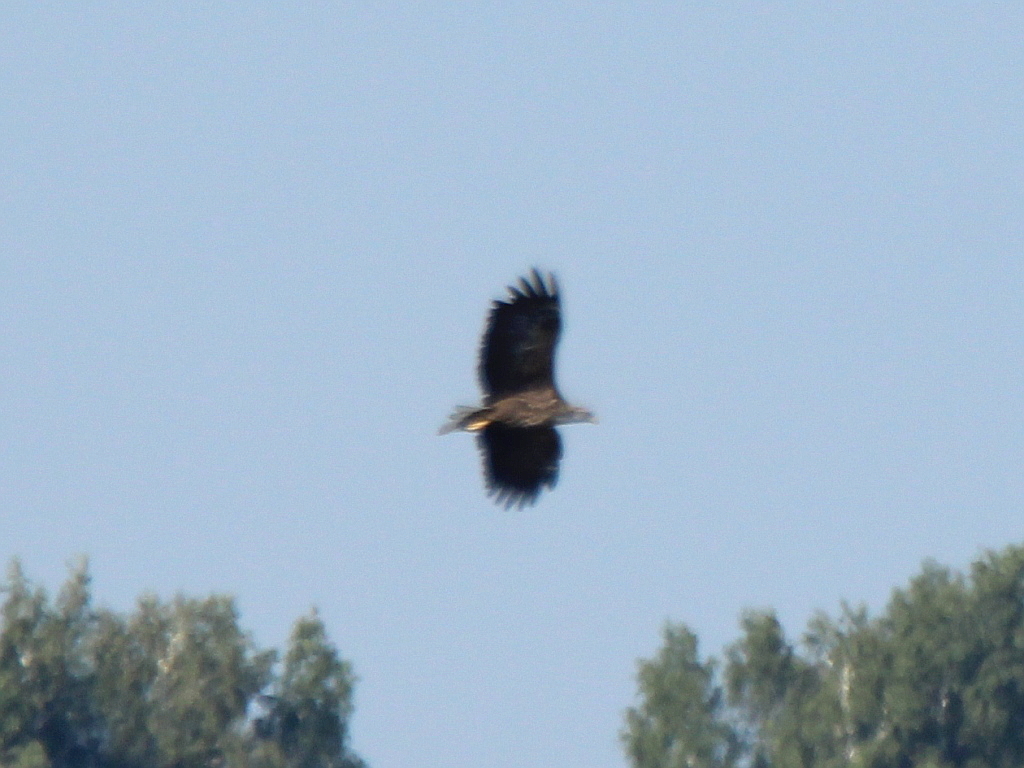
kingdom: Animalia
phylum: Chordata
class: Aves
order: Accipitriformes
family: Accipitridae
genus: Haliaeetus
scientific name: Haliaeetus albicilla
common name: White-tailed eagle
